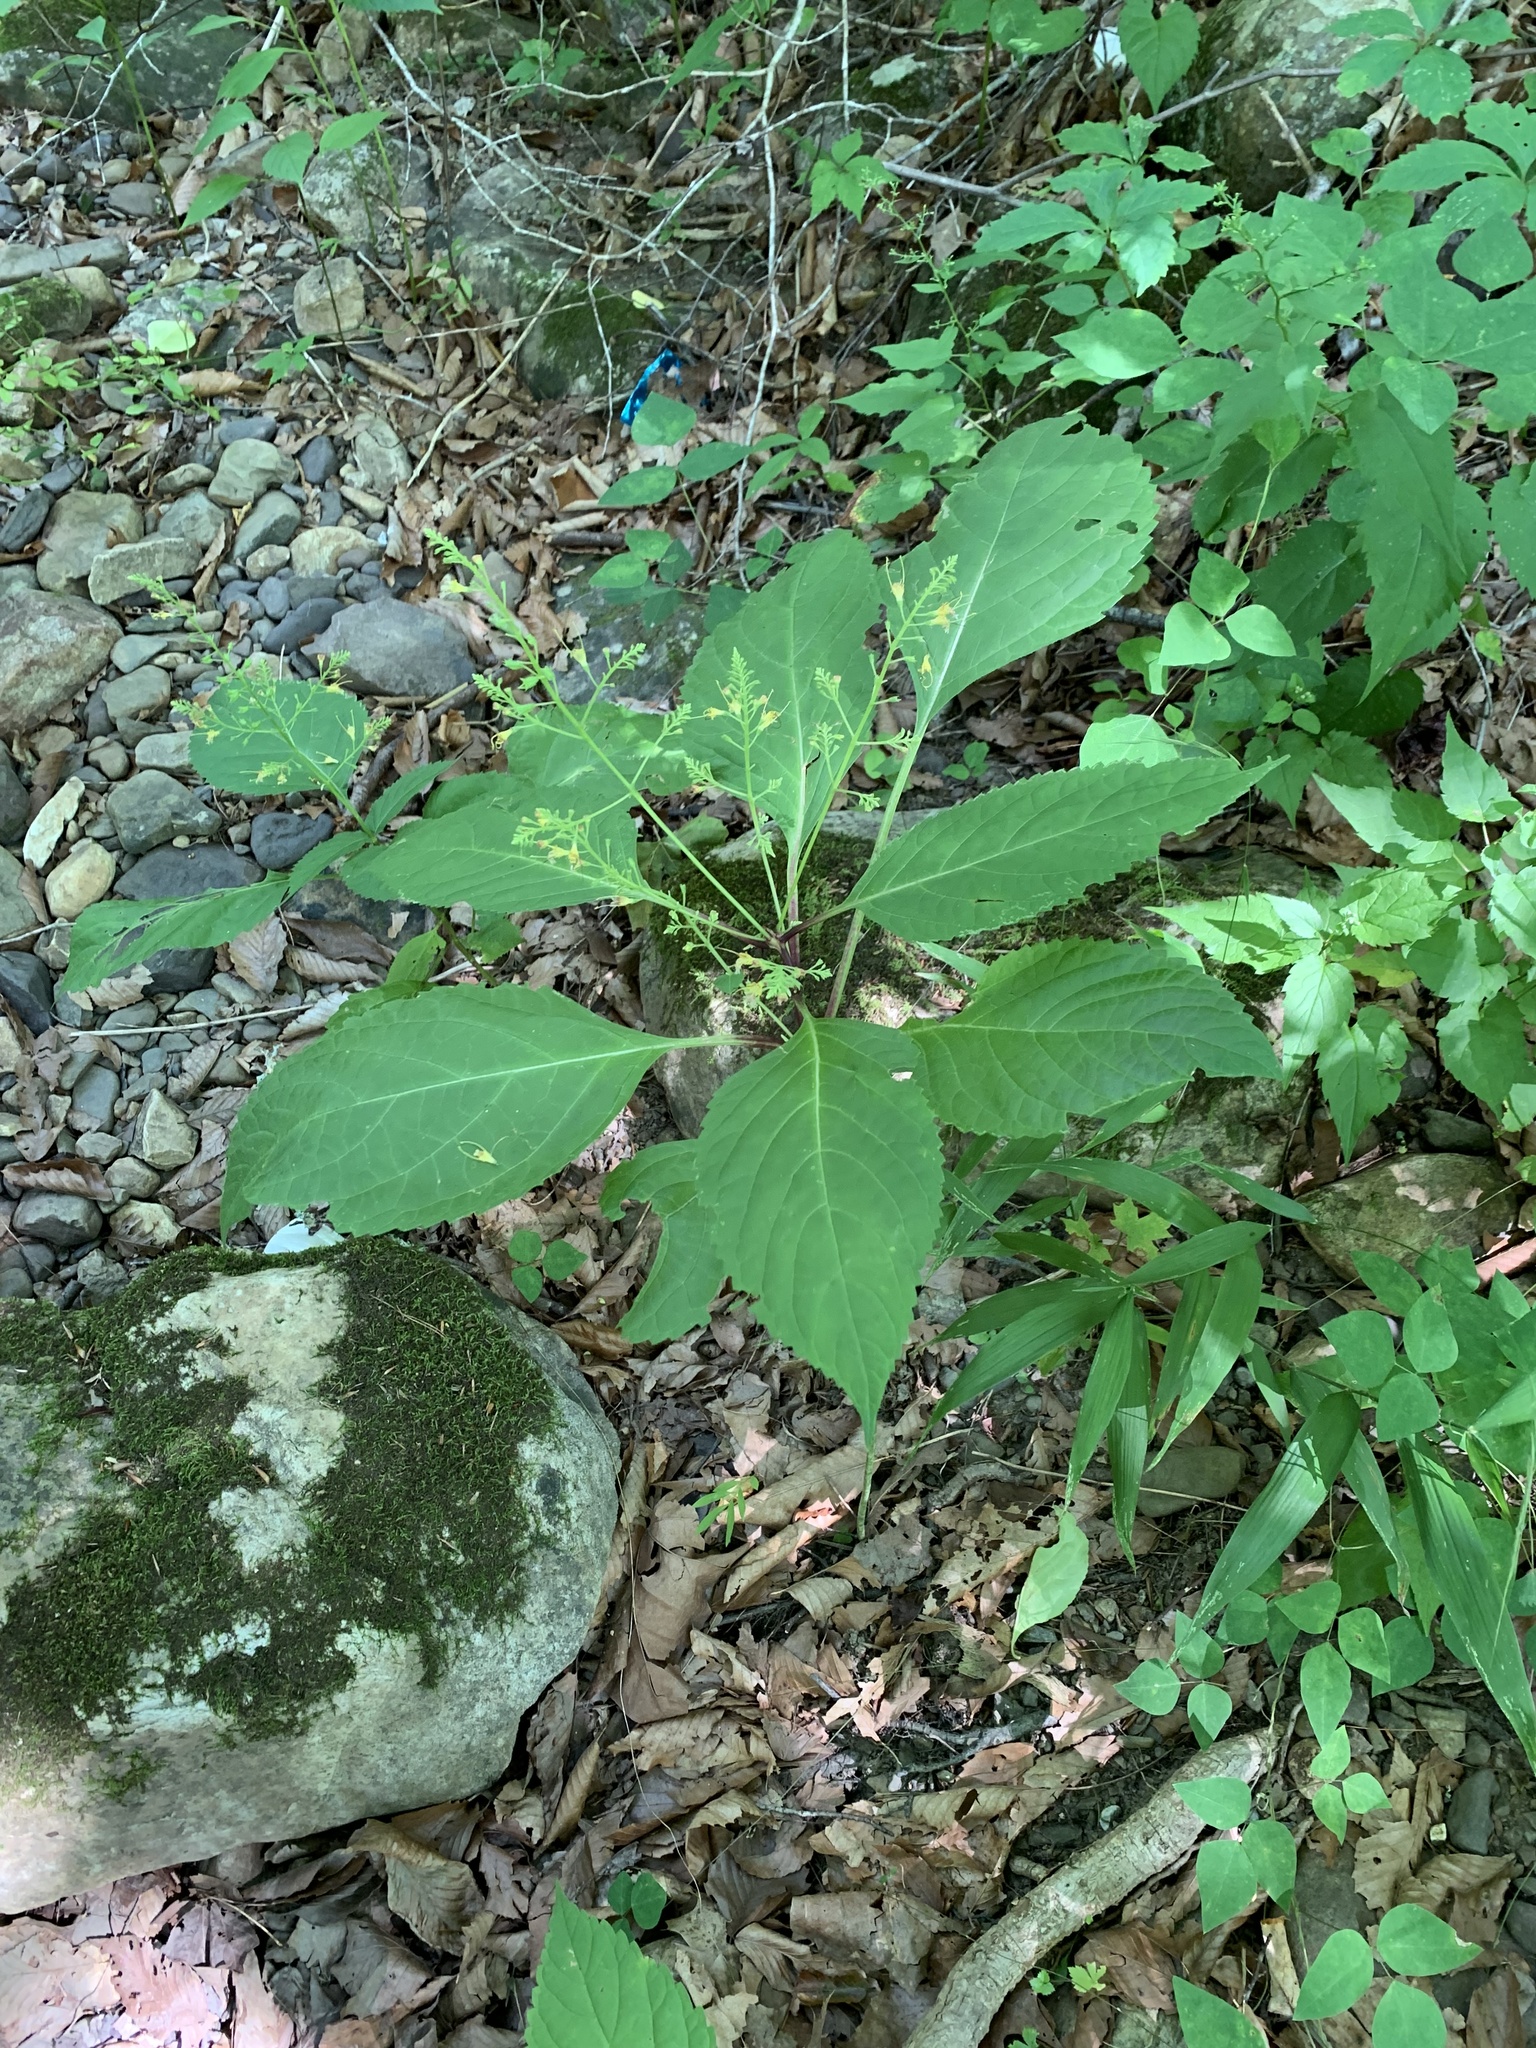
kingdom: Plantae
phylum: Tracheophyta
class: Magnoliopsida
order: Lamiales
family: Lamiaceae
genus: Collinsonia
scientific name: Collinsonia canadensis
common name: Northern horsebalm
